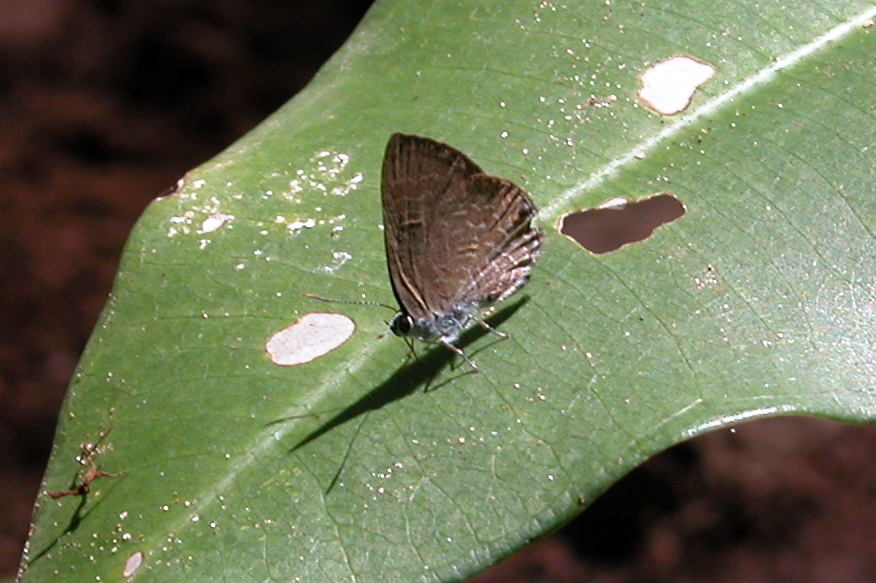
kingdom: Animalia
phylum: Arthropoda
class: Insecta
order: Lepidoptera
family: Lycaenidae
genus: Anthene
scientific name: Anthene emolus
